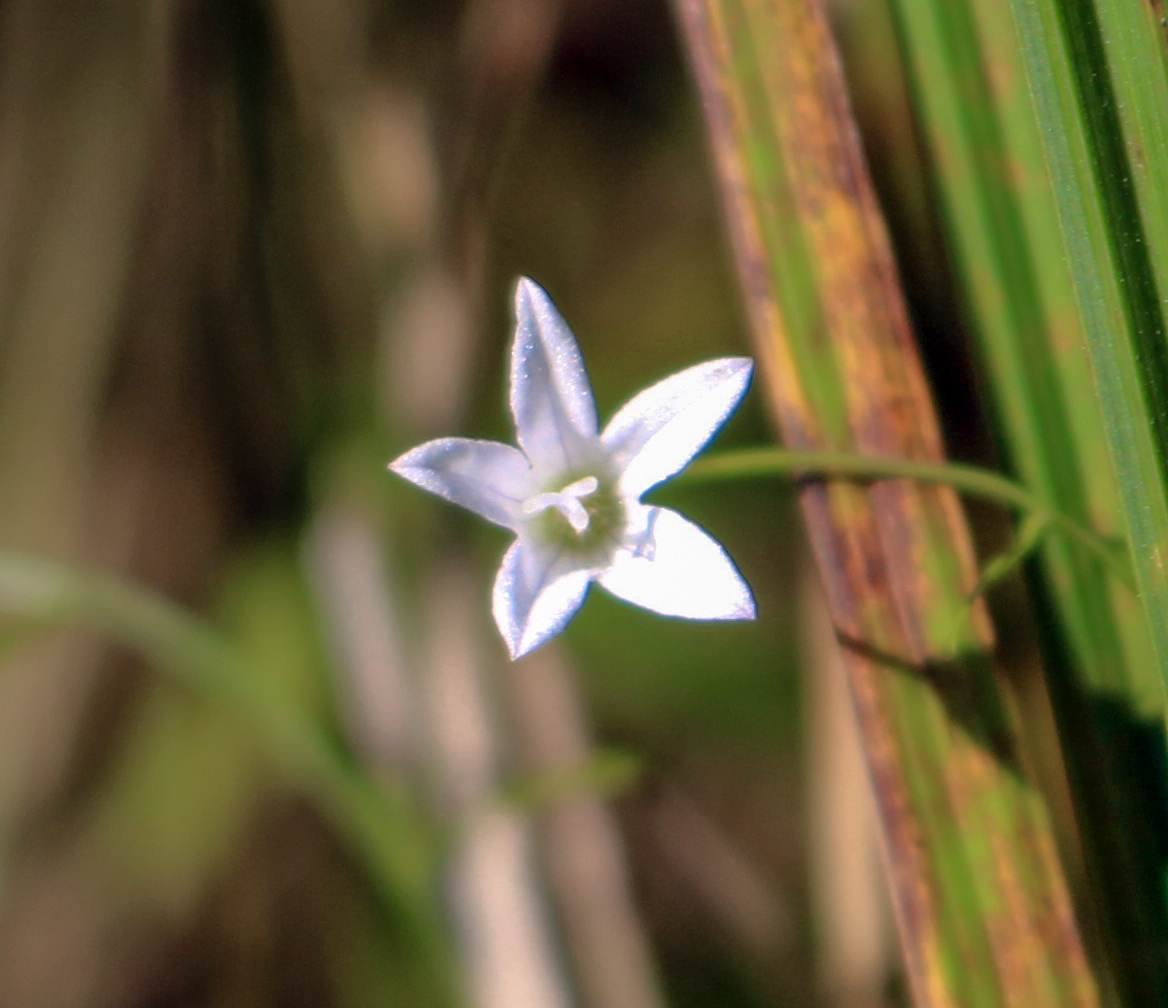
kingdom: Plantae
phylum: Tracheophyta
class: Magnoliopsida
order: Asterales
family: Campanulaceae
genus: Palustricodon
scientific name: Palustricodon aparinoides
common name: Bedstraw bellflower
